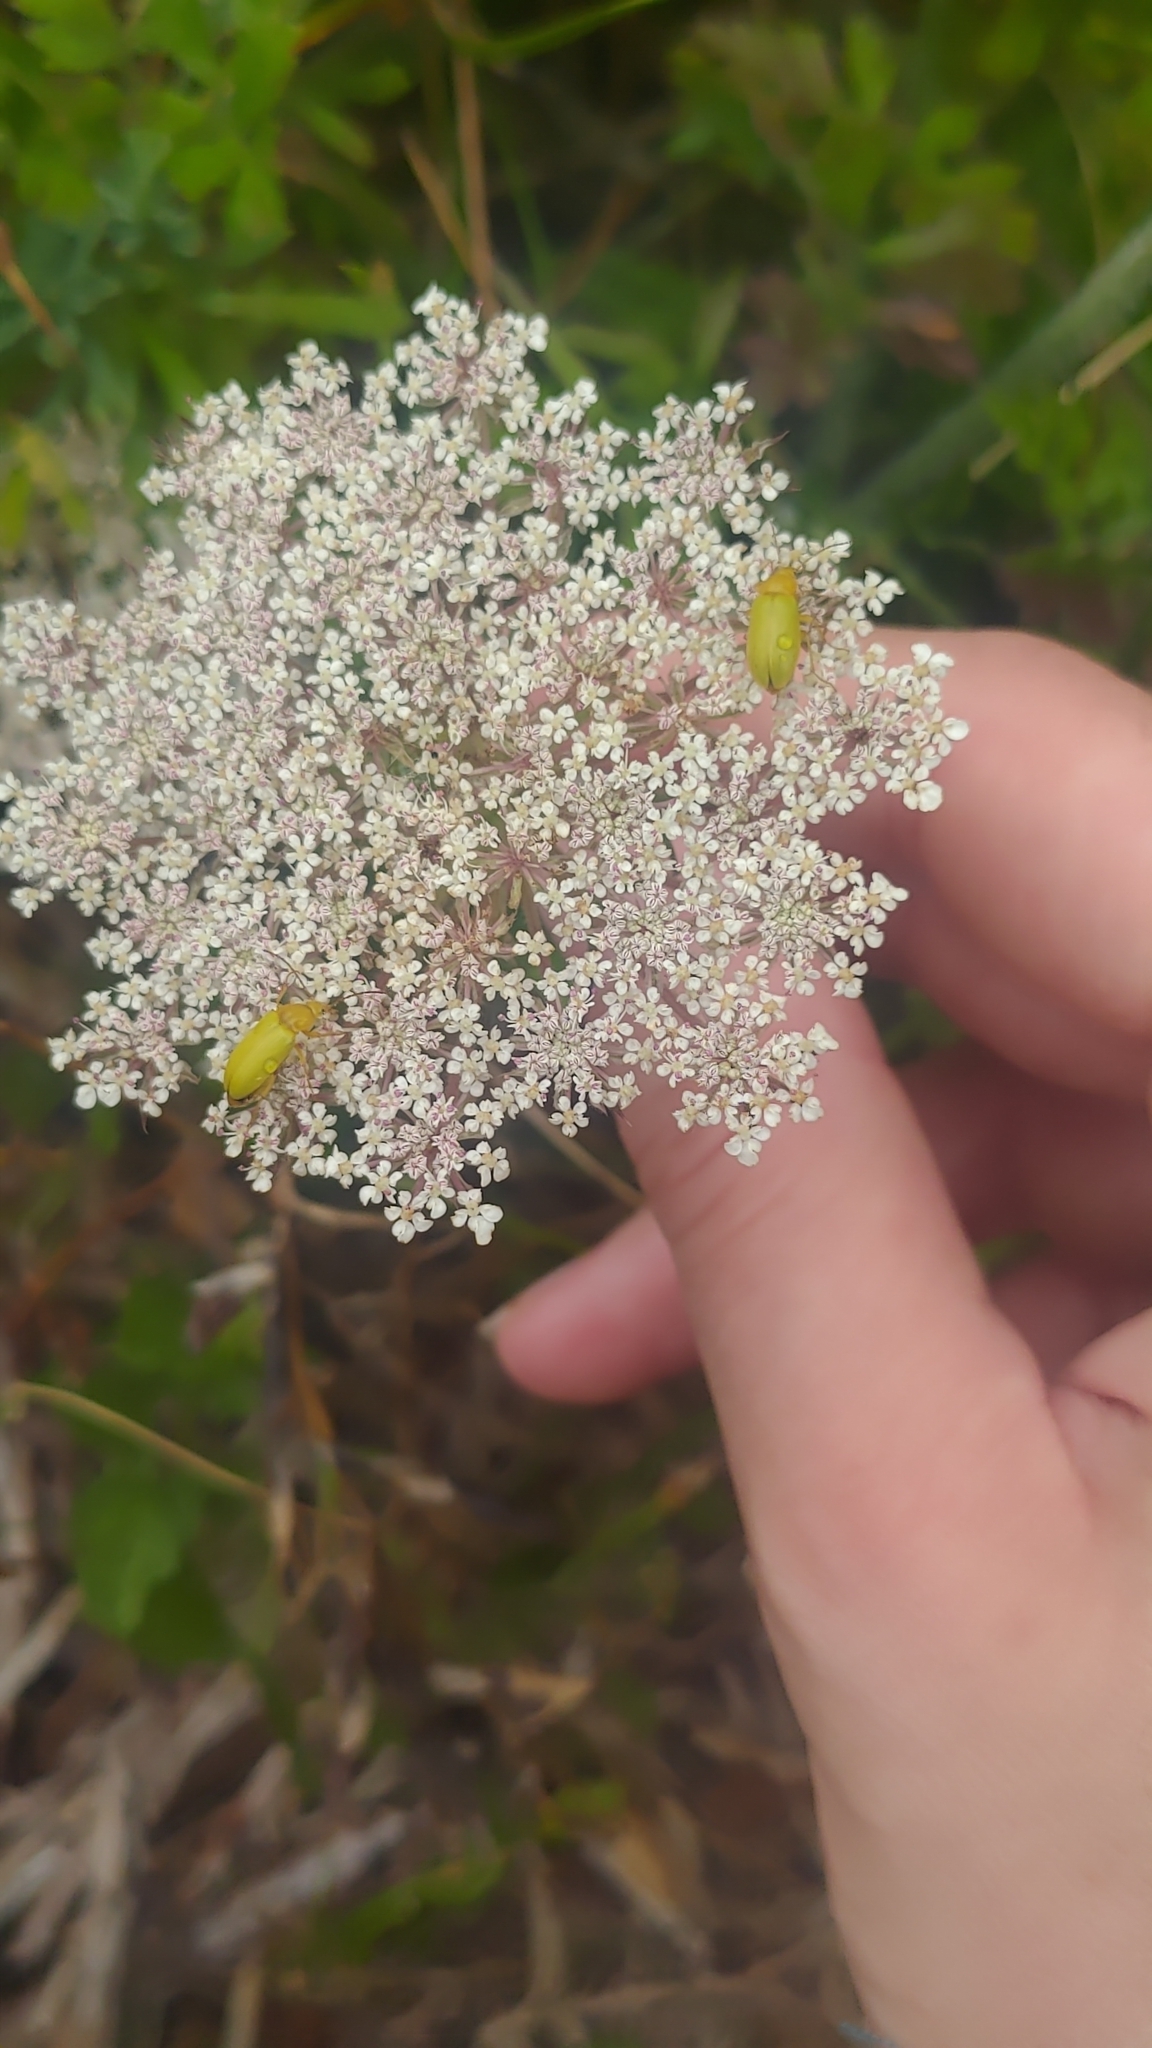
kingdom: Animalia
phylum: Arthropoda
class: Insecta
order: Coleoptera
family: Tenebrionidae
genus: Cteniopus
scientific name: Cteniopus sulphureus
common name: Sulphur beetle
